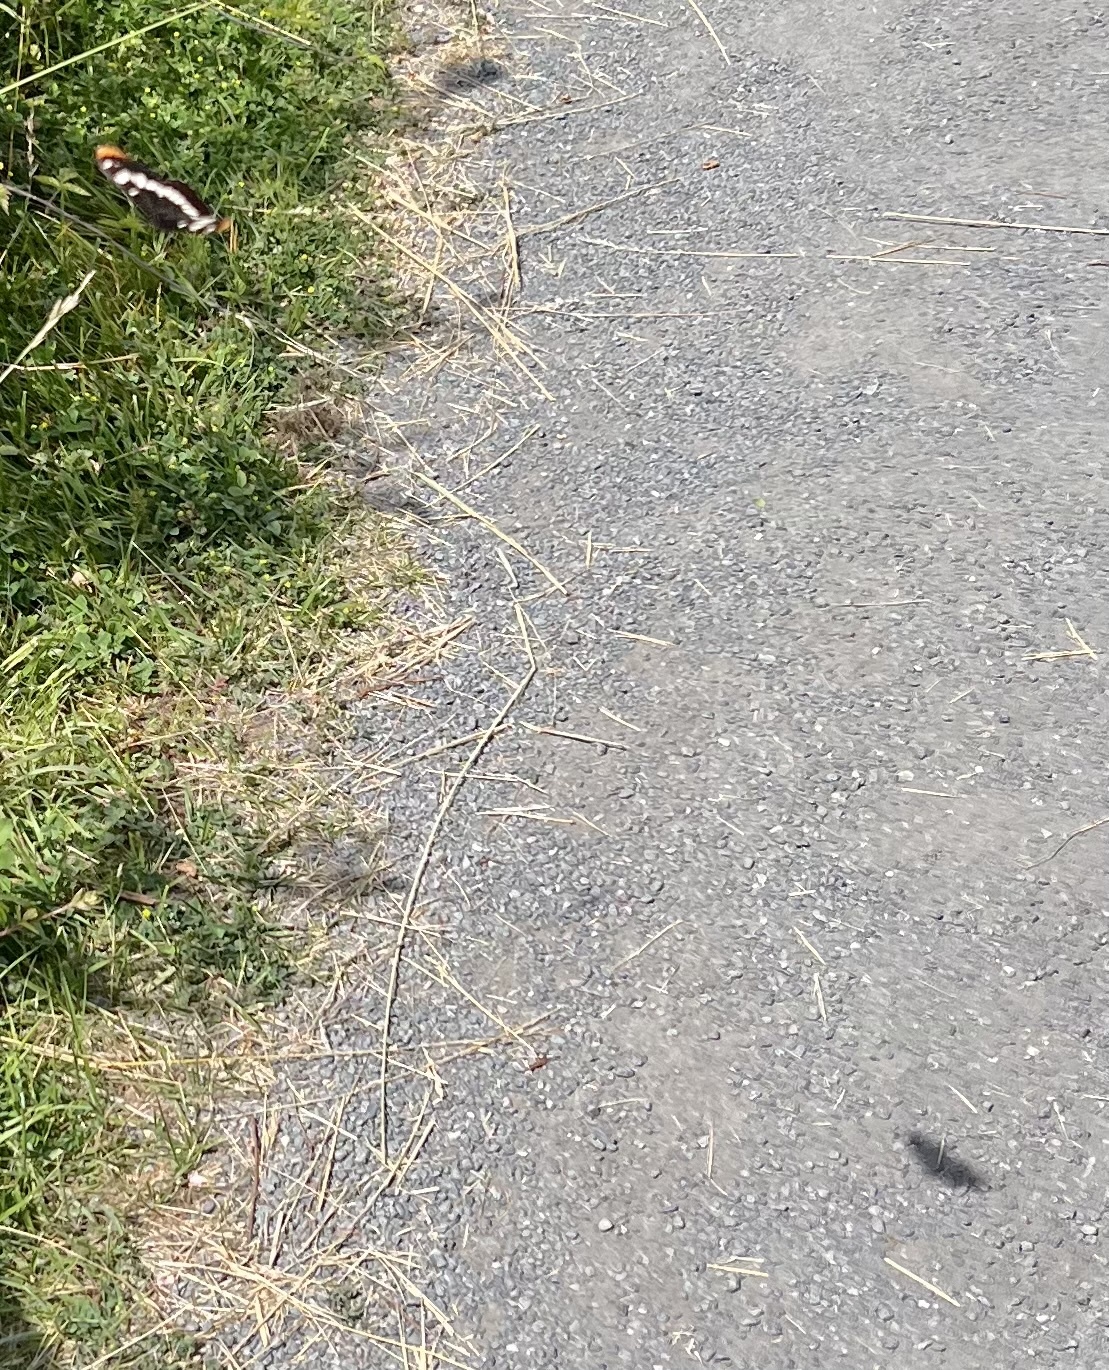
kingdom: Animalia
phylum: Arthropoda
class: Insecta
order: Lepidoptera
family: Nymphalidae
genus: Limenitis
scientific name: Limenitis lorquini
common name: Lorquin's admiral
